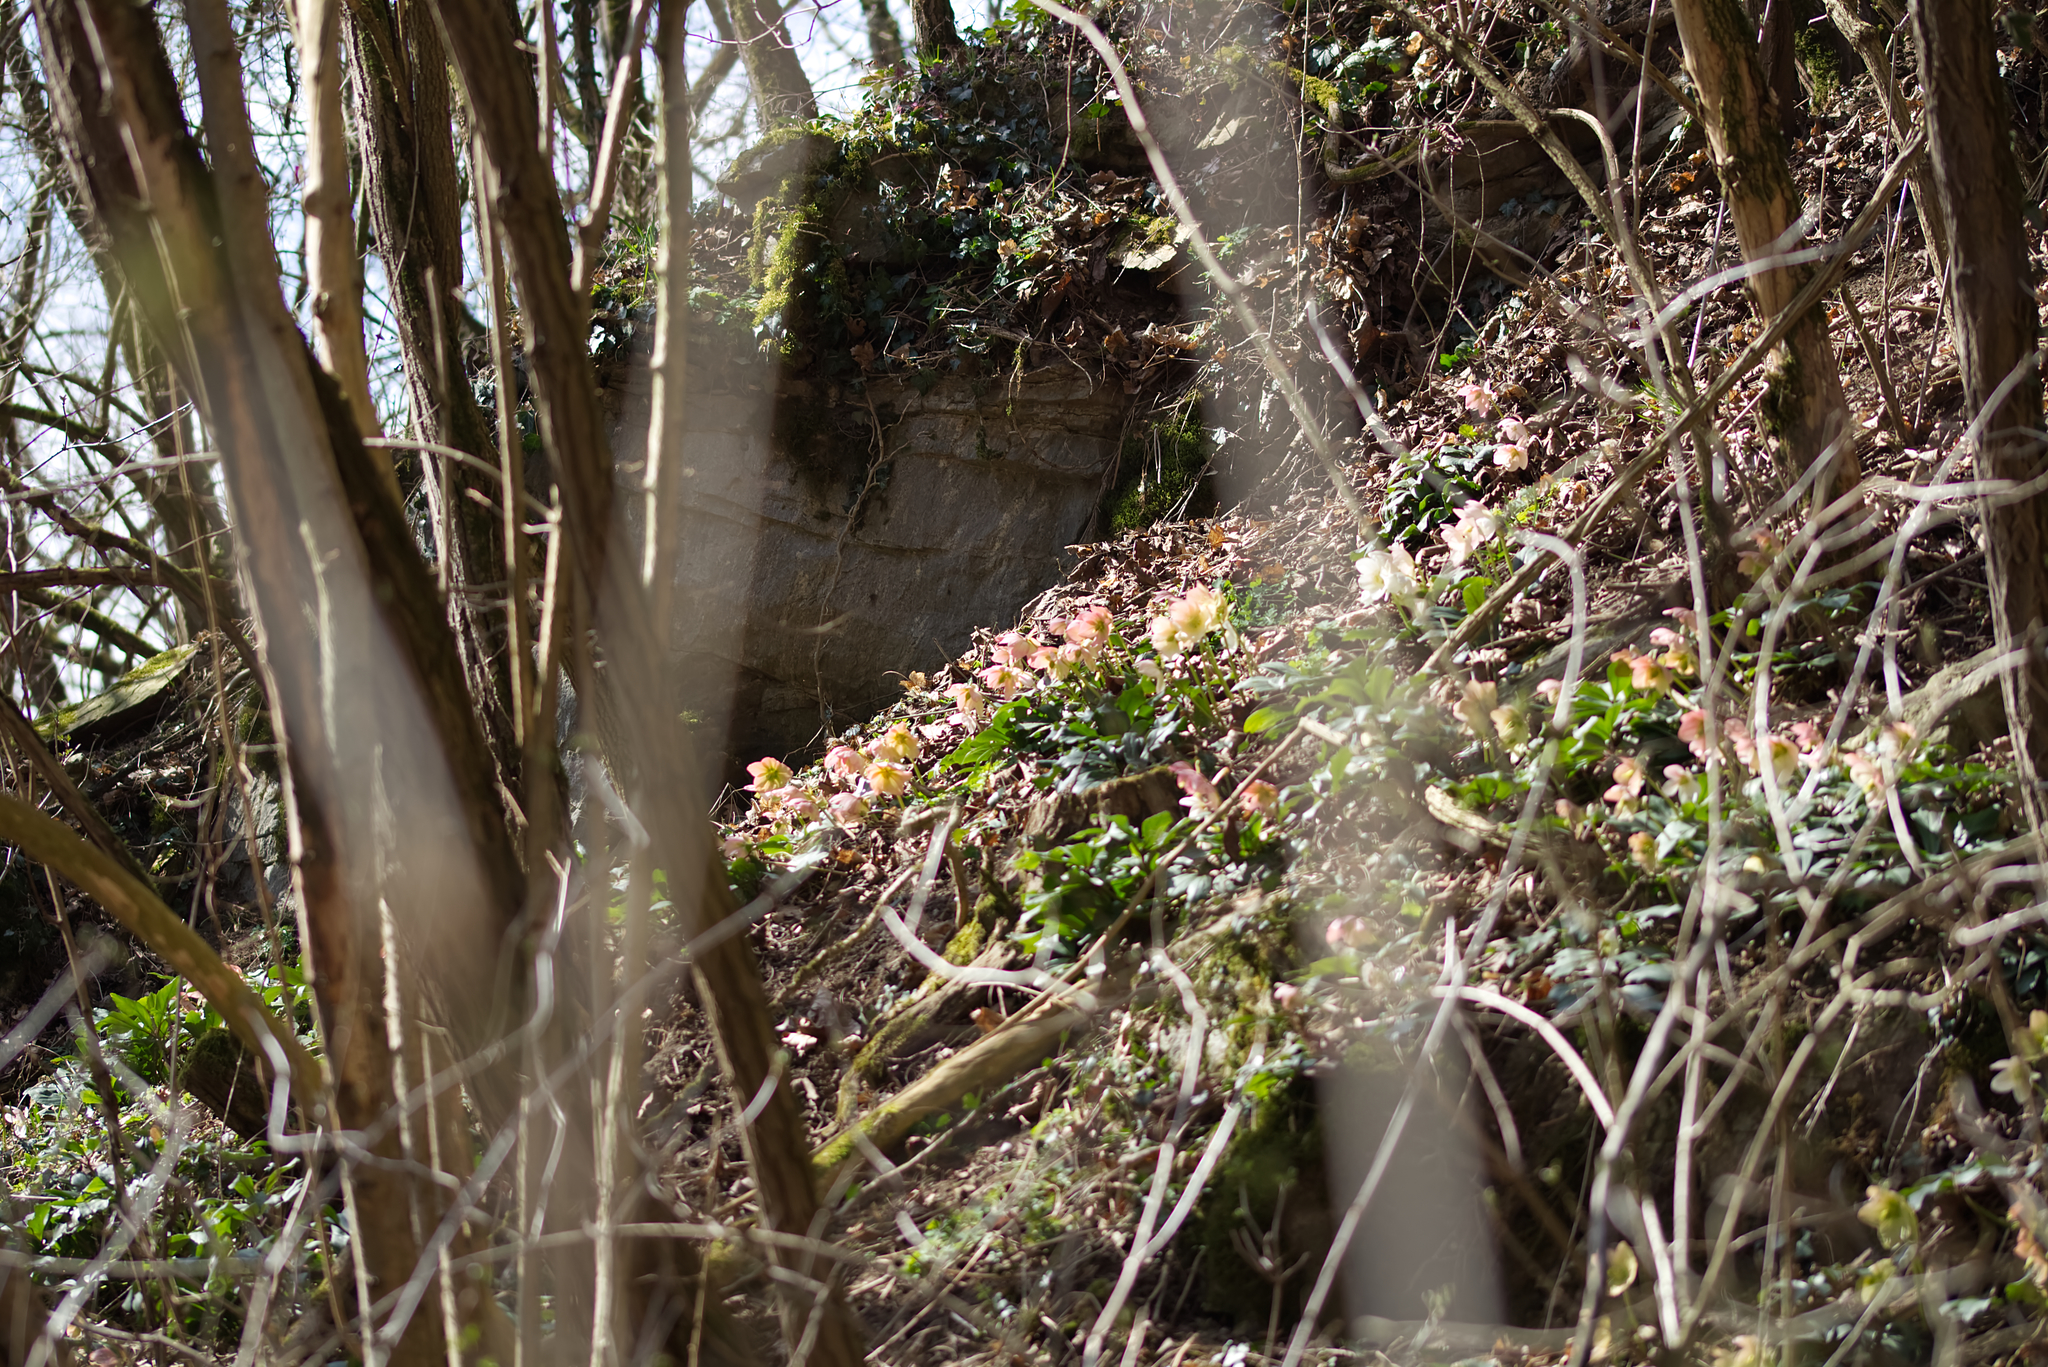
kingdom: Plantae
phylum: Tracheophyta
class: Magnoliopsida
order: Ranunculales
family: Ranunculaceae
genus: Helleborus
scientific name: Helleborus niger
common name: Black hellebore
